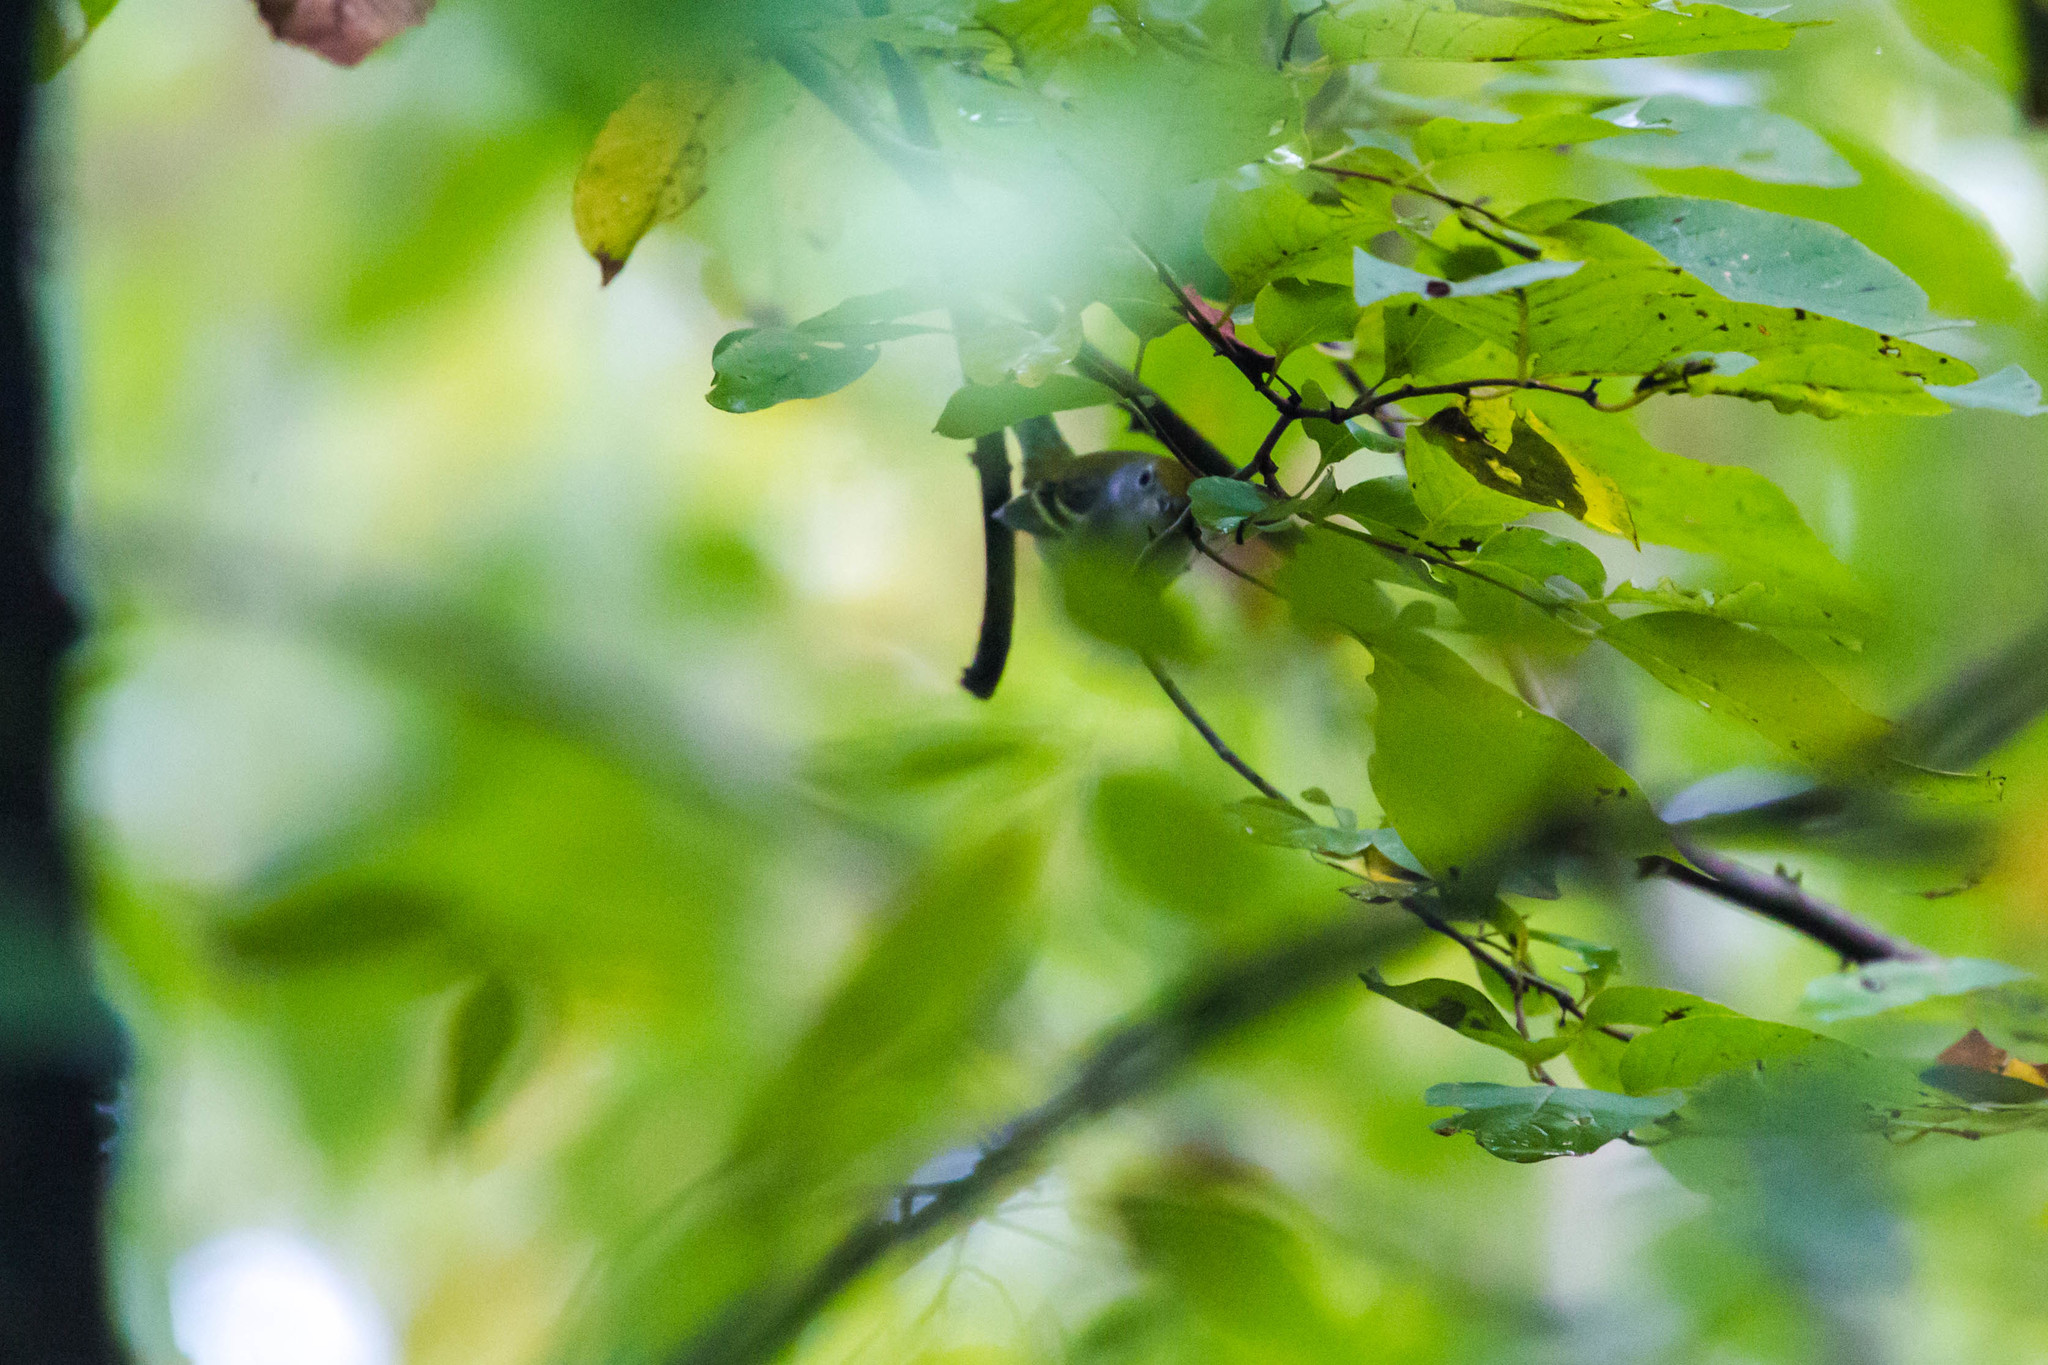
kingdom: Animalia
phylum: Chordata
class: Aves
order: Passeriformes
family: Parulidae
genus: Setophaga
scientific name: Setophaga pensylvanica
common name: Chestnut-sided warbler
